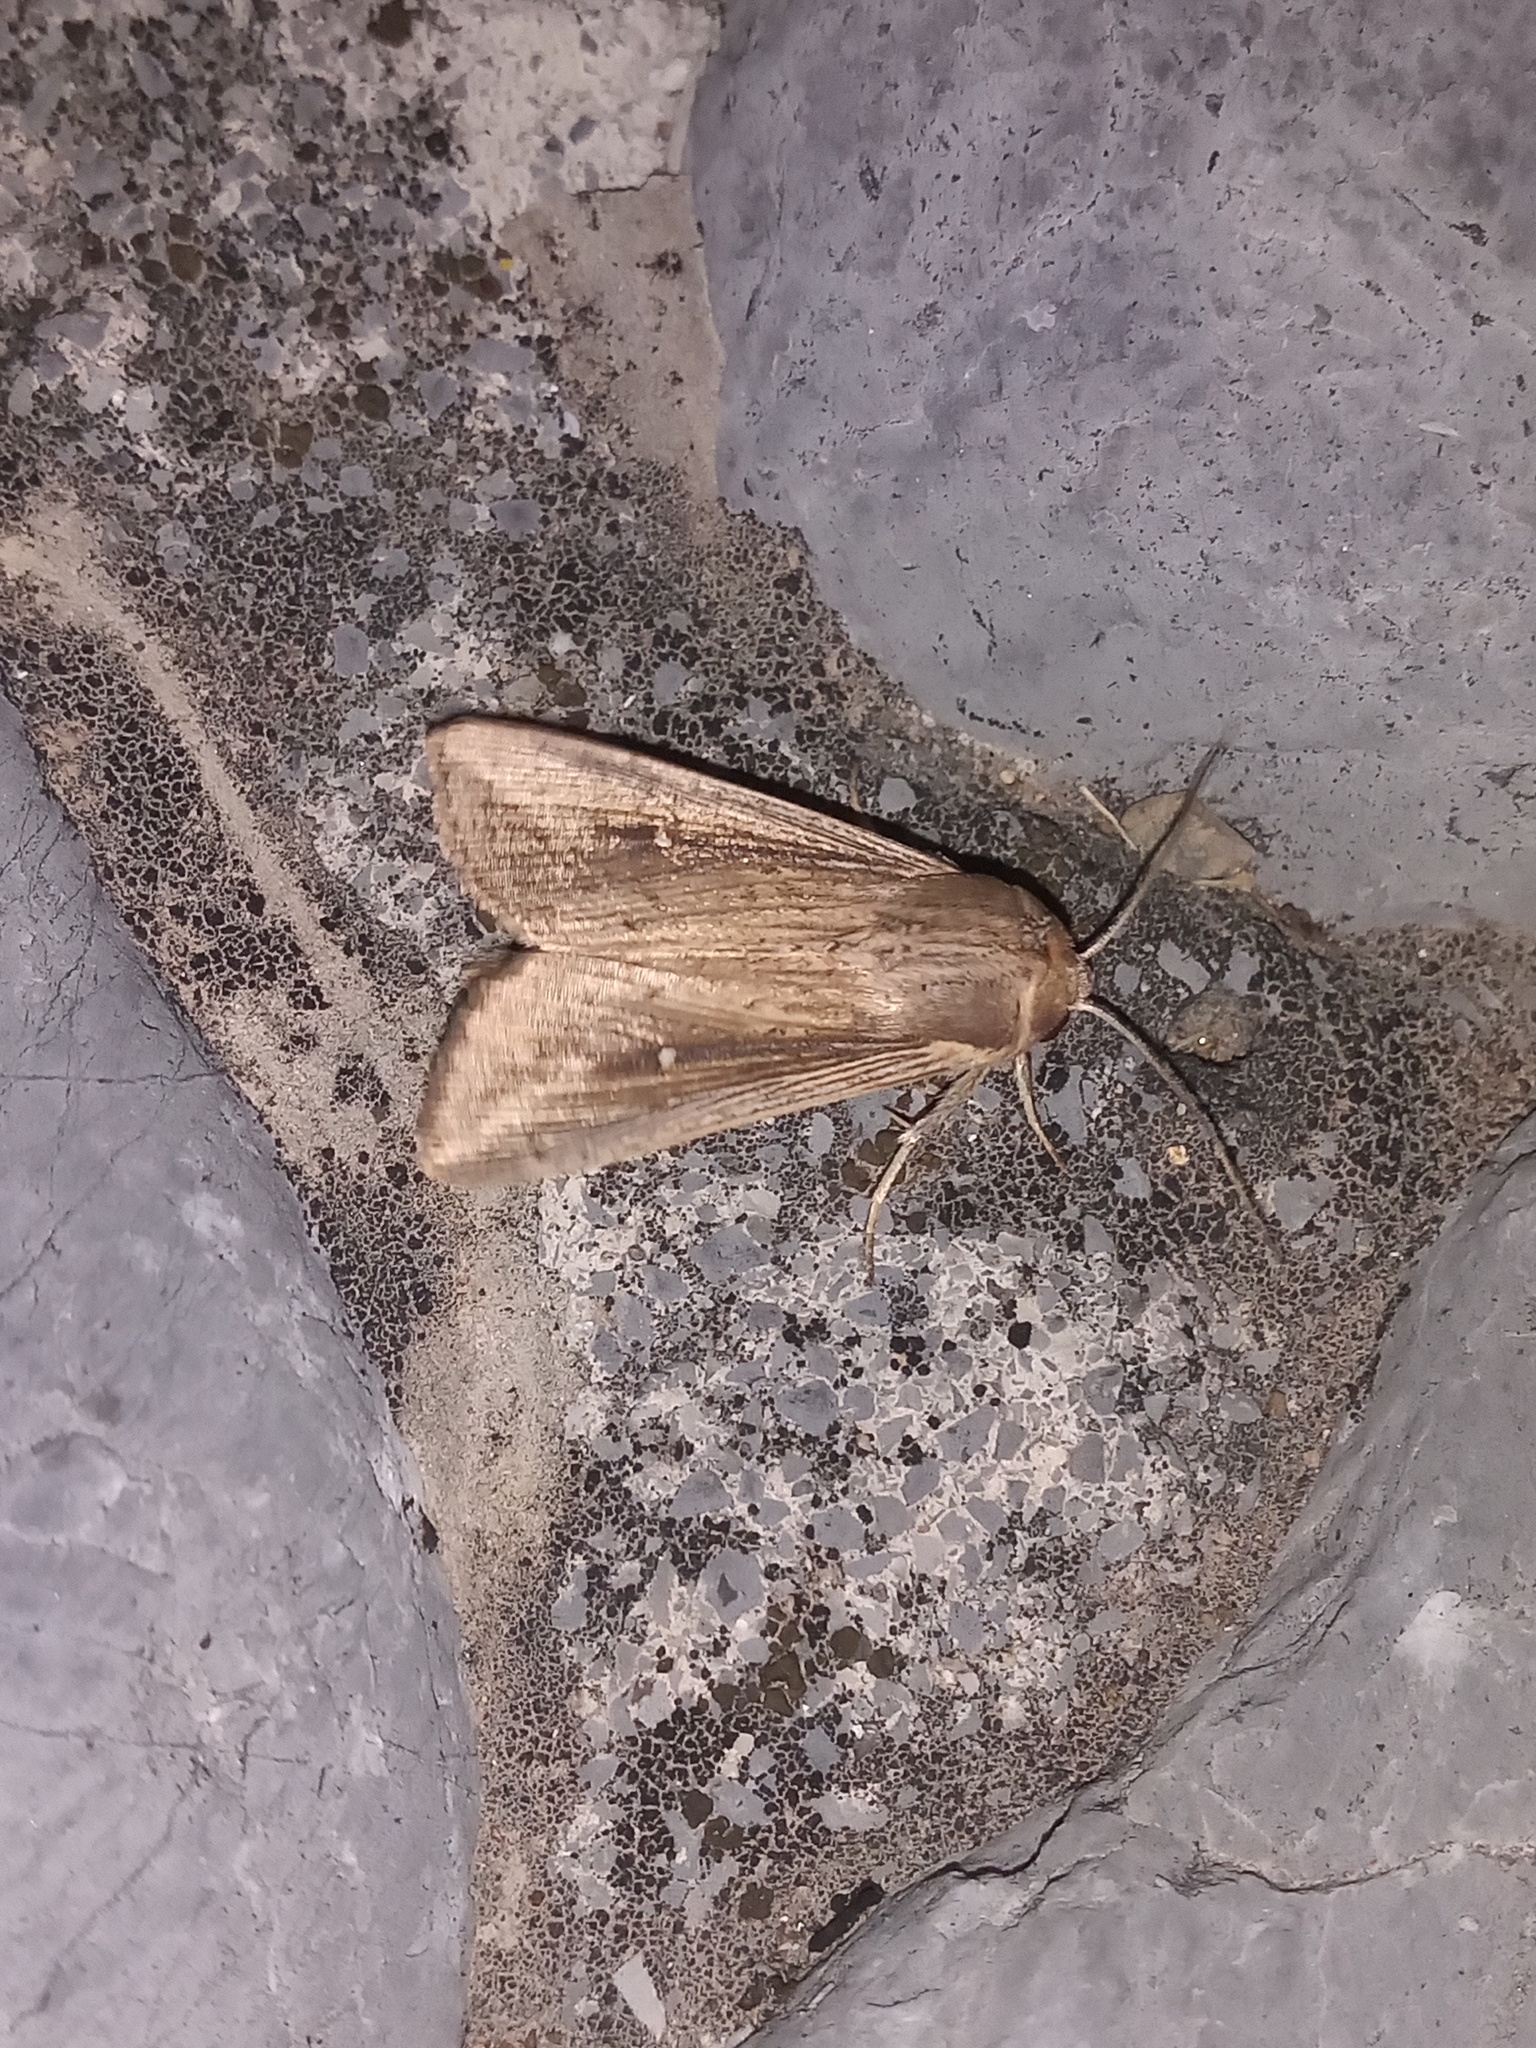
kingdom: Animalia
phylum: Arthropoda
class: Insecta
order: Lepidoptera
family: Noctuidae
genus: Leucania
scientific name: Leucania incognita
